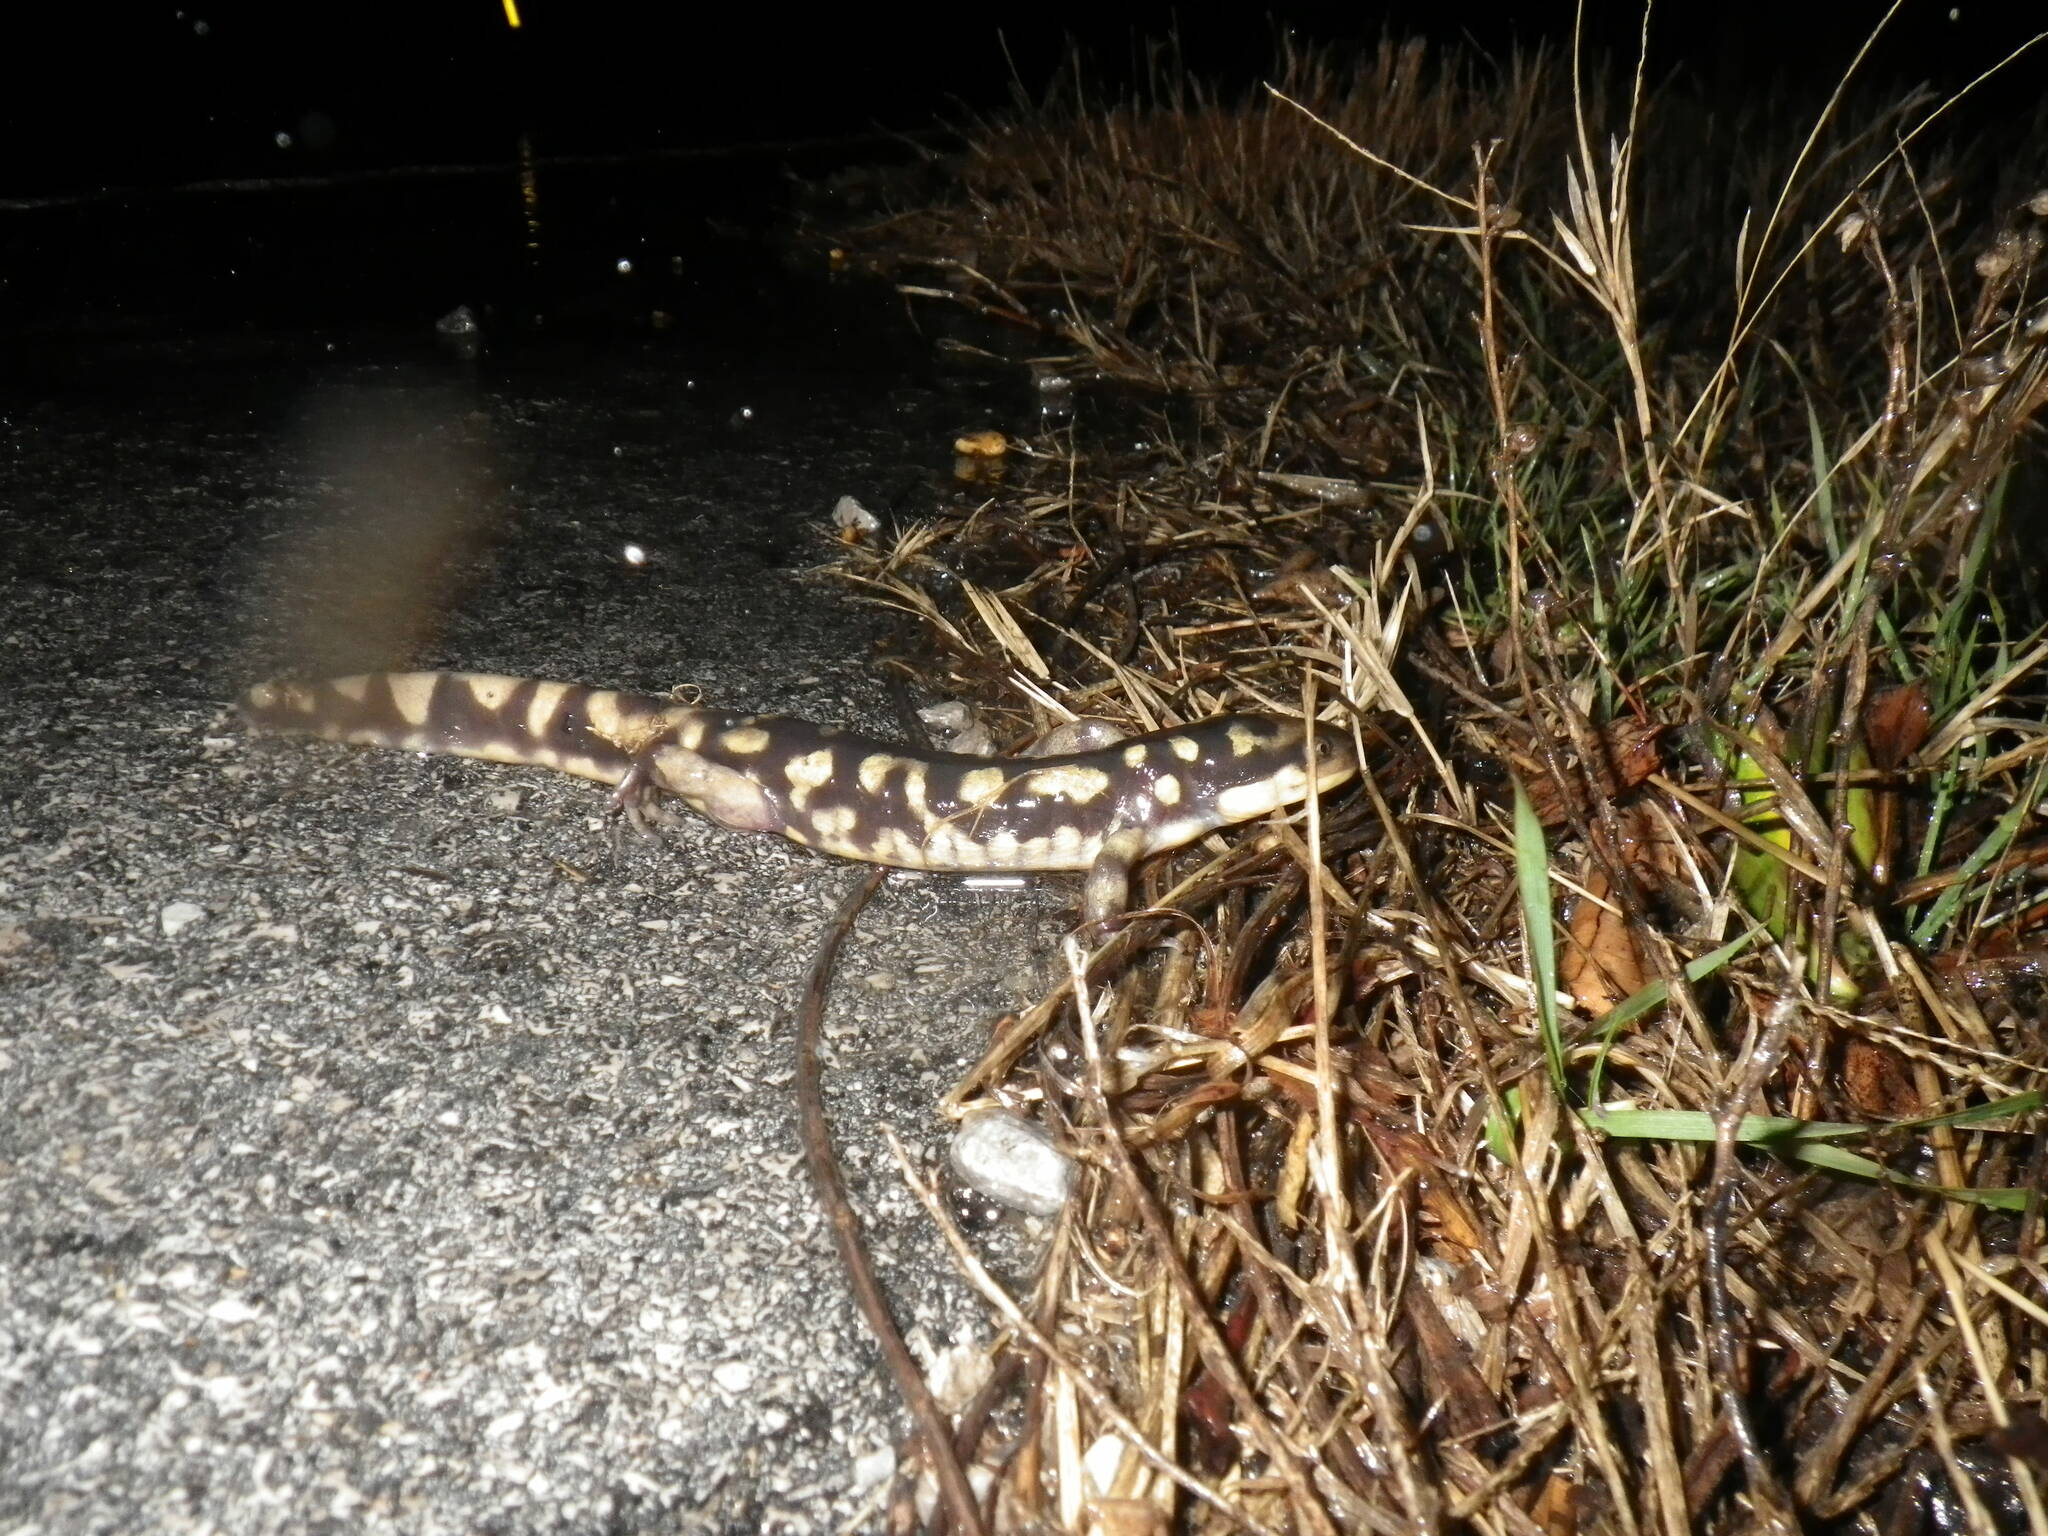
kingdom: Animalia
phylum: Chordata
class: Amphibia
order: Caudata
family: Ambystomatidae
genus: Ambystoma
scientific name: Ambystoma tigrinum
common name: Tiger salamander
